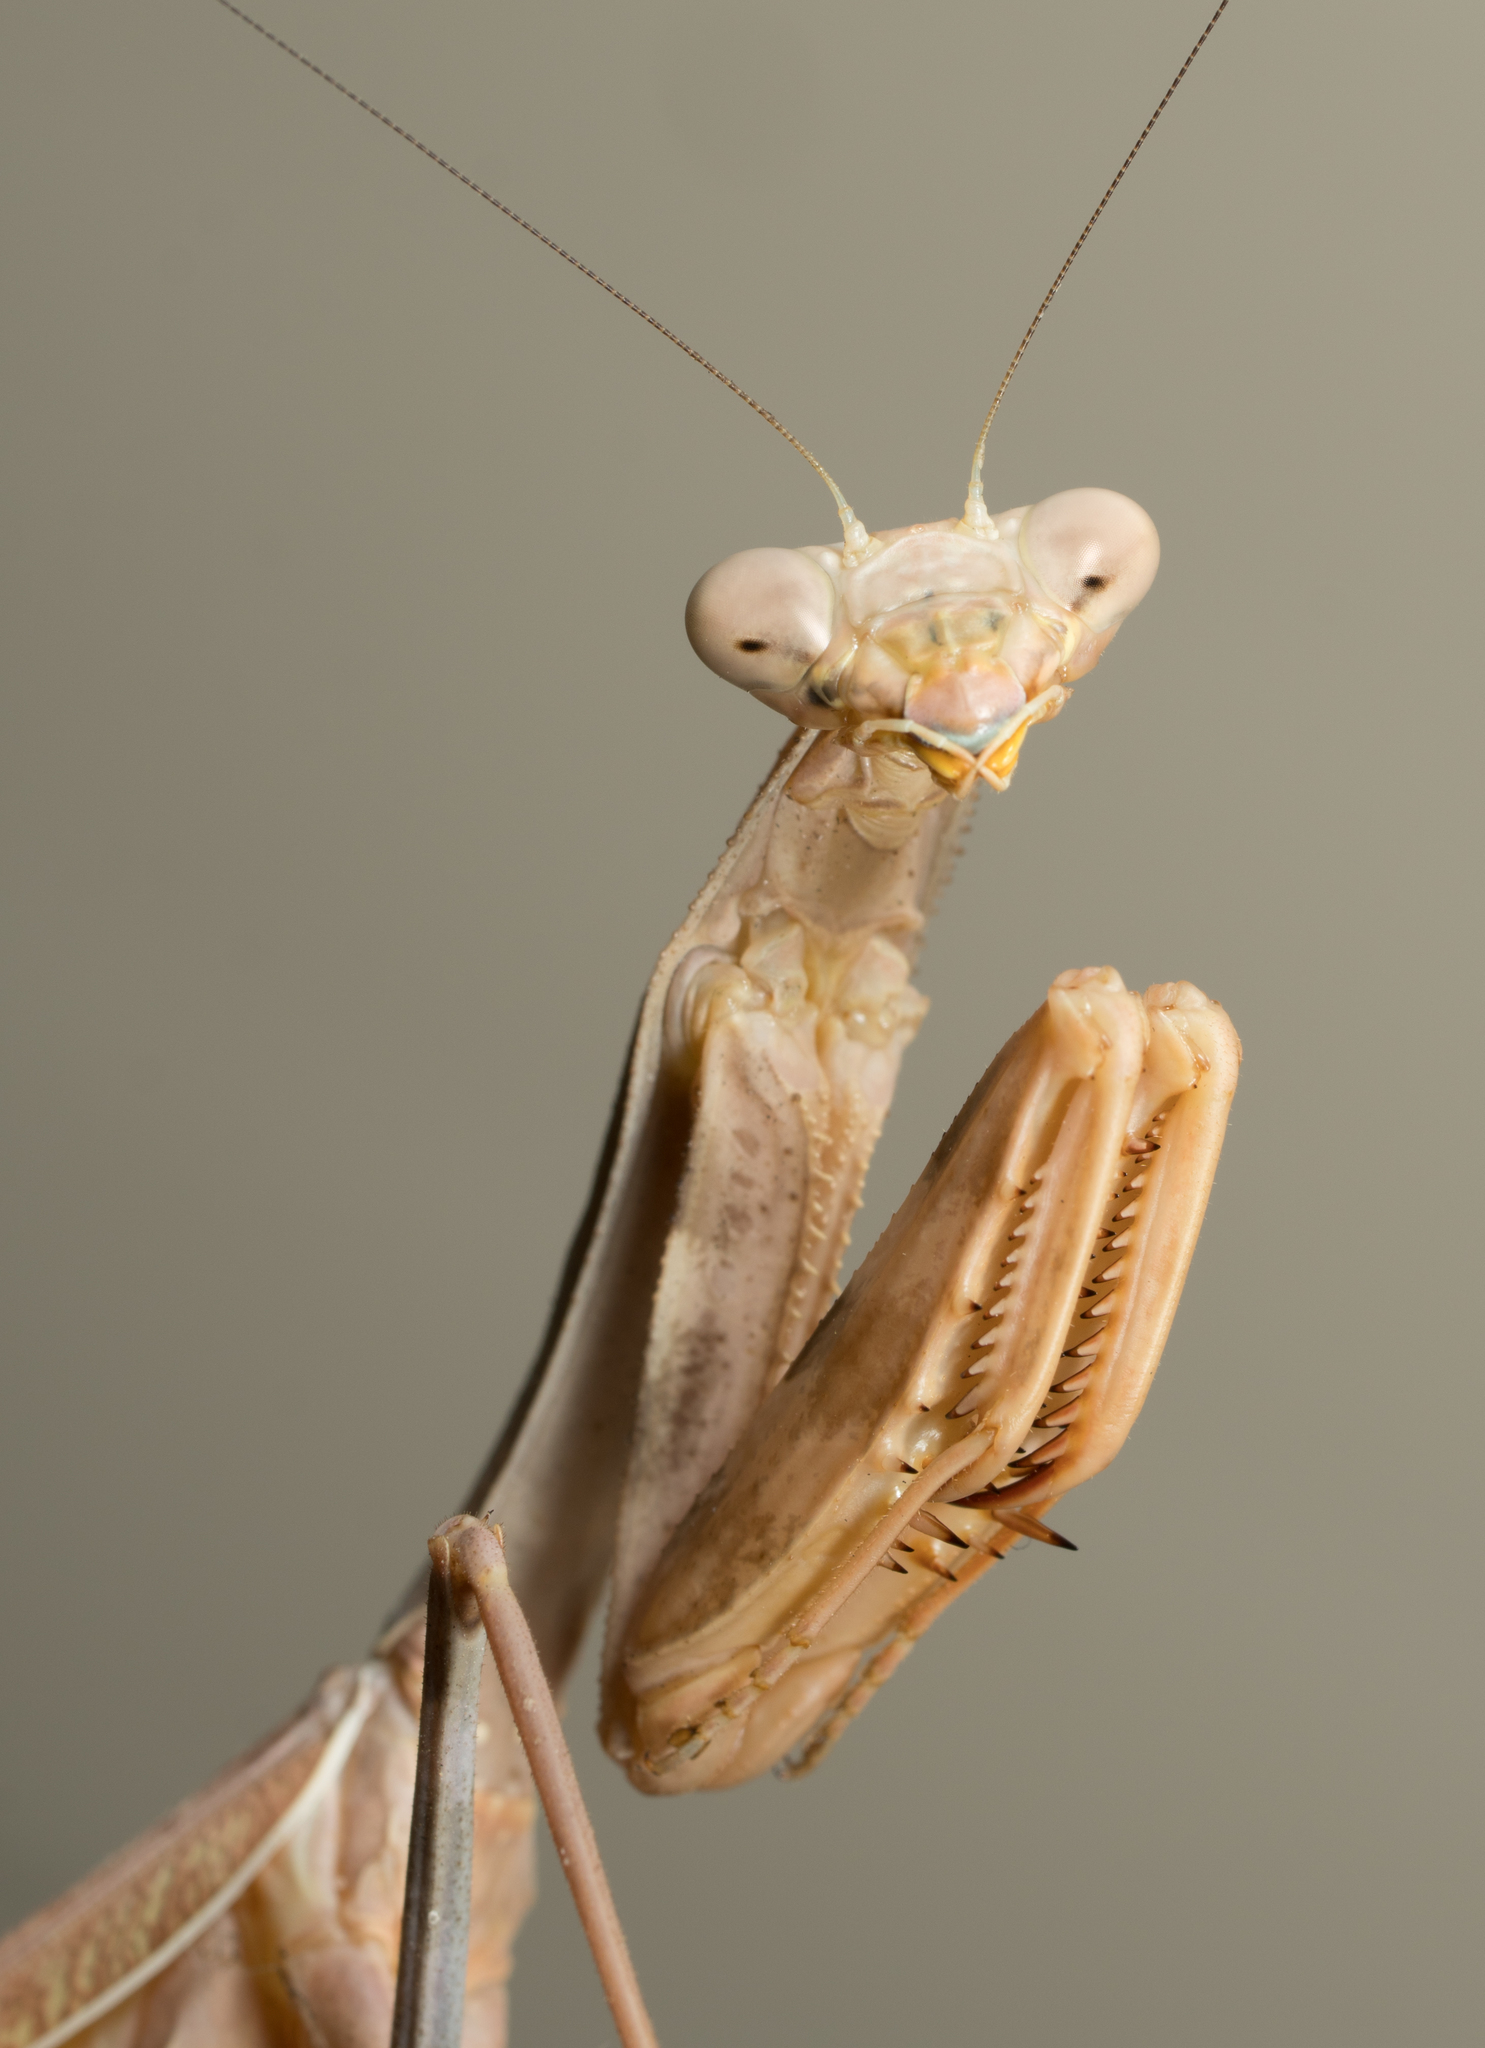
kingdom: Animalia
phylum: Arthropoda
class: Insecta
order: Mantodea
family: Mantidae
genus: Stagmomantis
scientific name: Stagmomantis limbata
